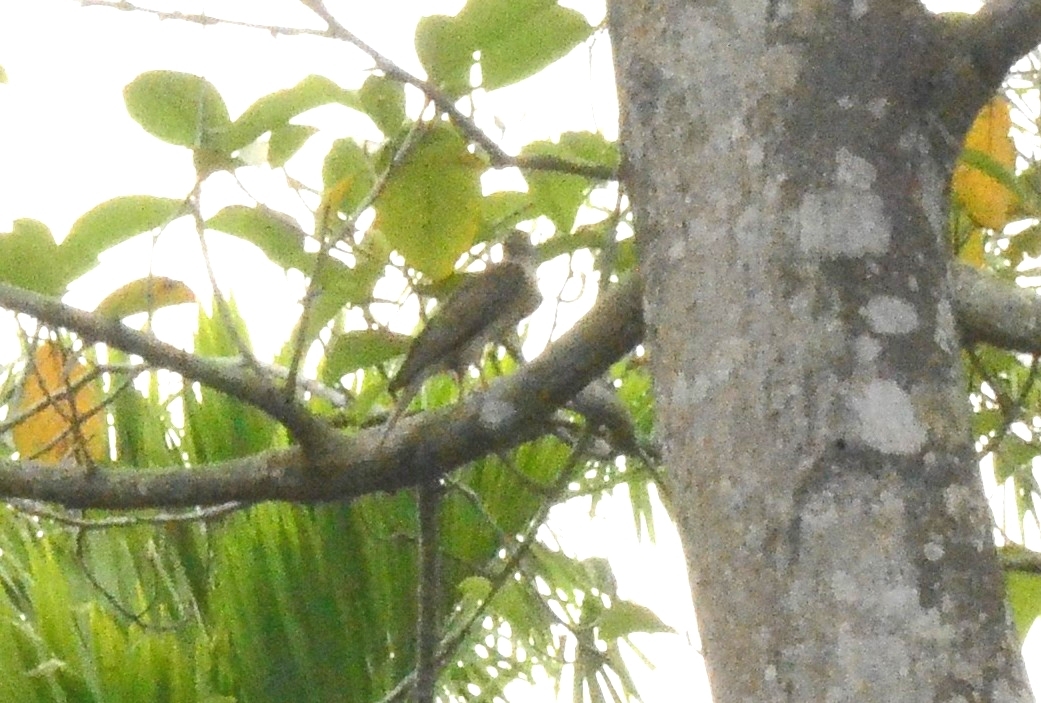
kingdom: Animalia
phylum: Chordata
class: Aves
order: Accipitriformes
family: Accipitridae
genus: Accipiter
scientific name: Accipiter badius
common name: Shikra
